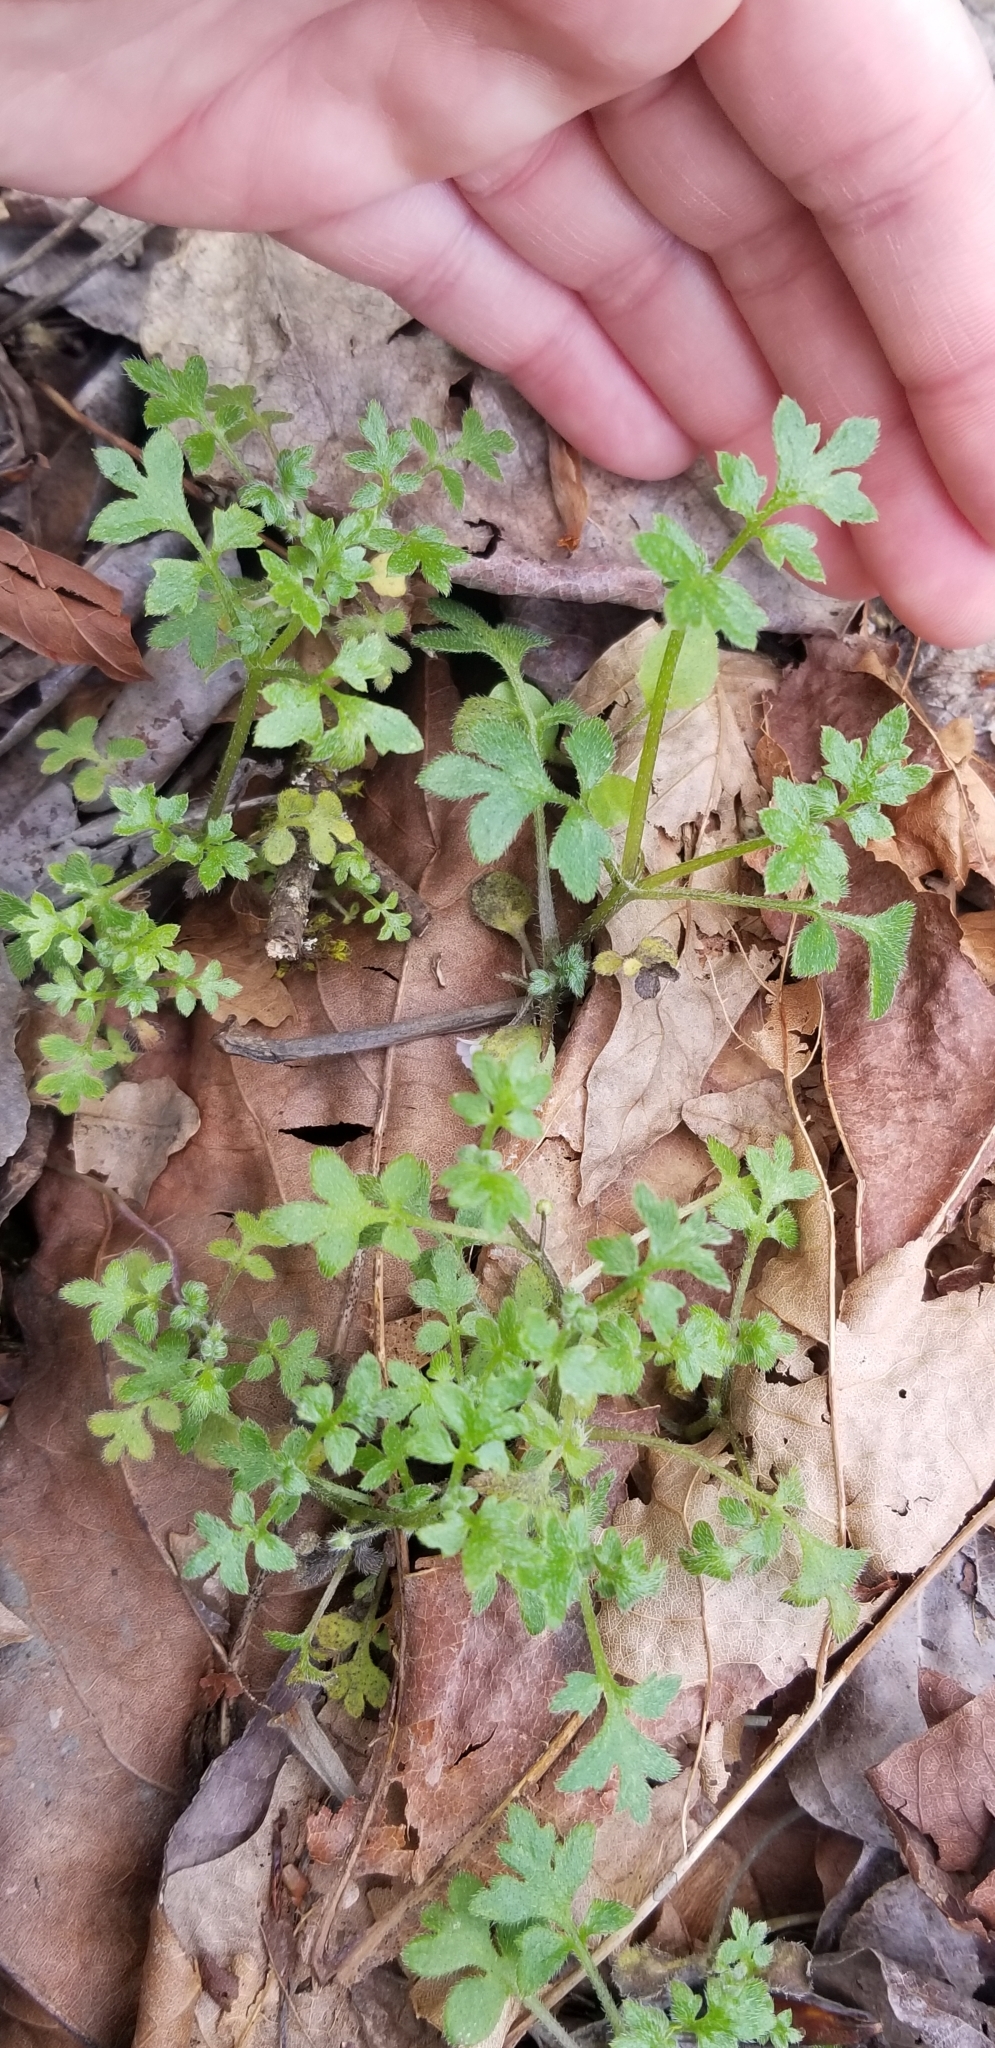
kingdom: Plantae
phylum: Tracheophyta
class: Magnoliopsida
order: Boraginales
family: Hydrophyllaceae
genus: Nemophila
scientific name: Nemophila parviflora
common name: Small-flowered baby-blue-eyes
